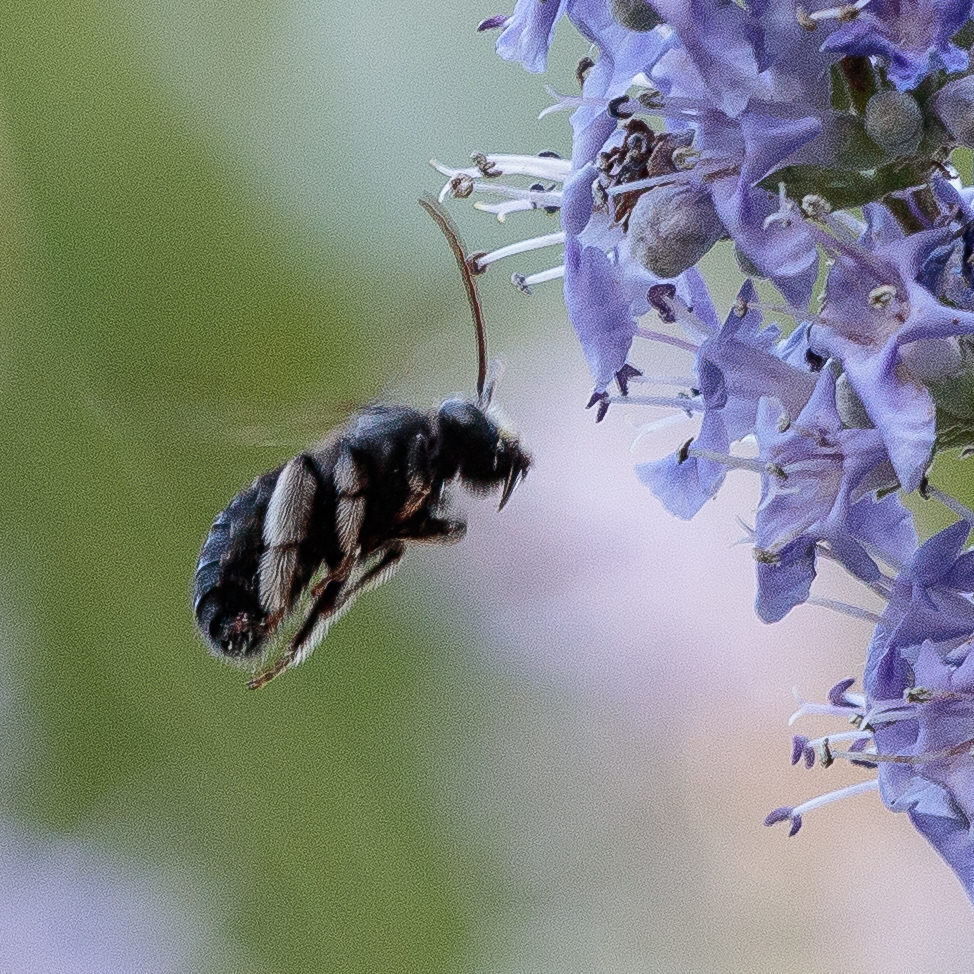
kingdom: Animalia
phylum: Arthropoda
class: Insecta
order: Hymenoptera
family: Apidae
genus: Melissodes
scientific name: Melissodes bimaculatus
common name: Two-spotted long-horned bee
